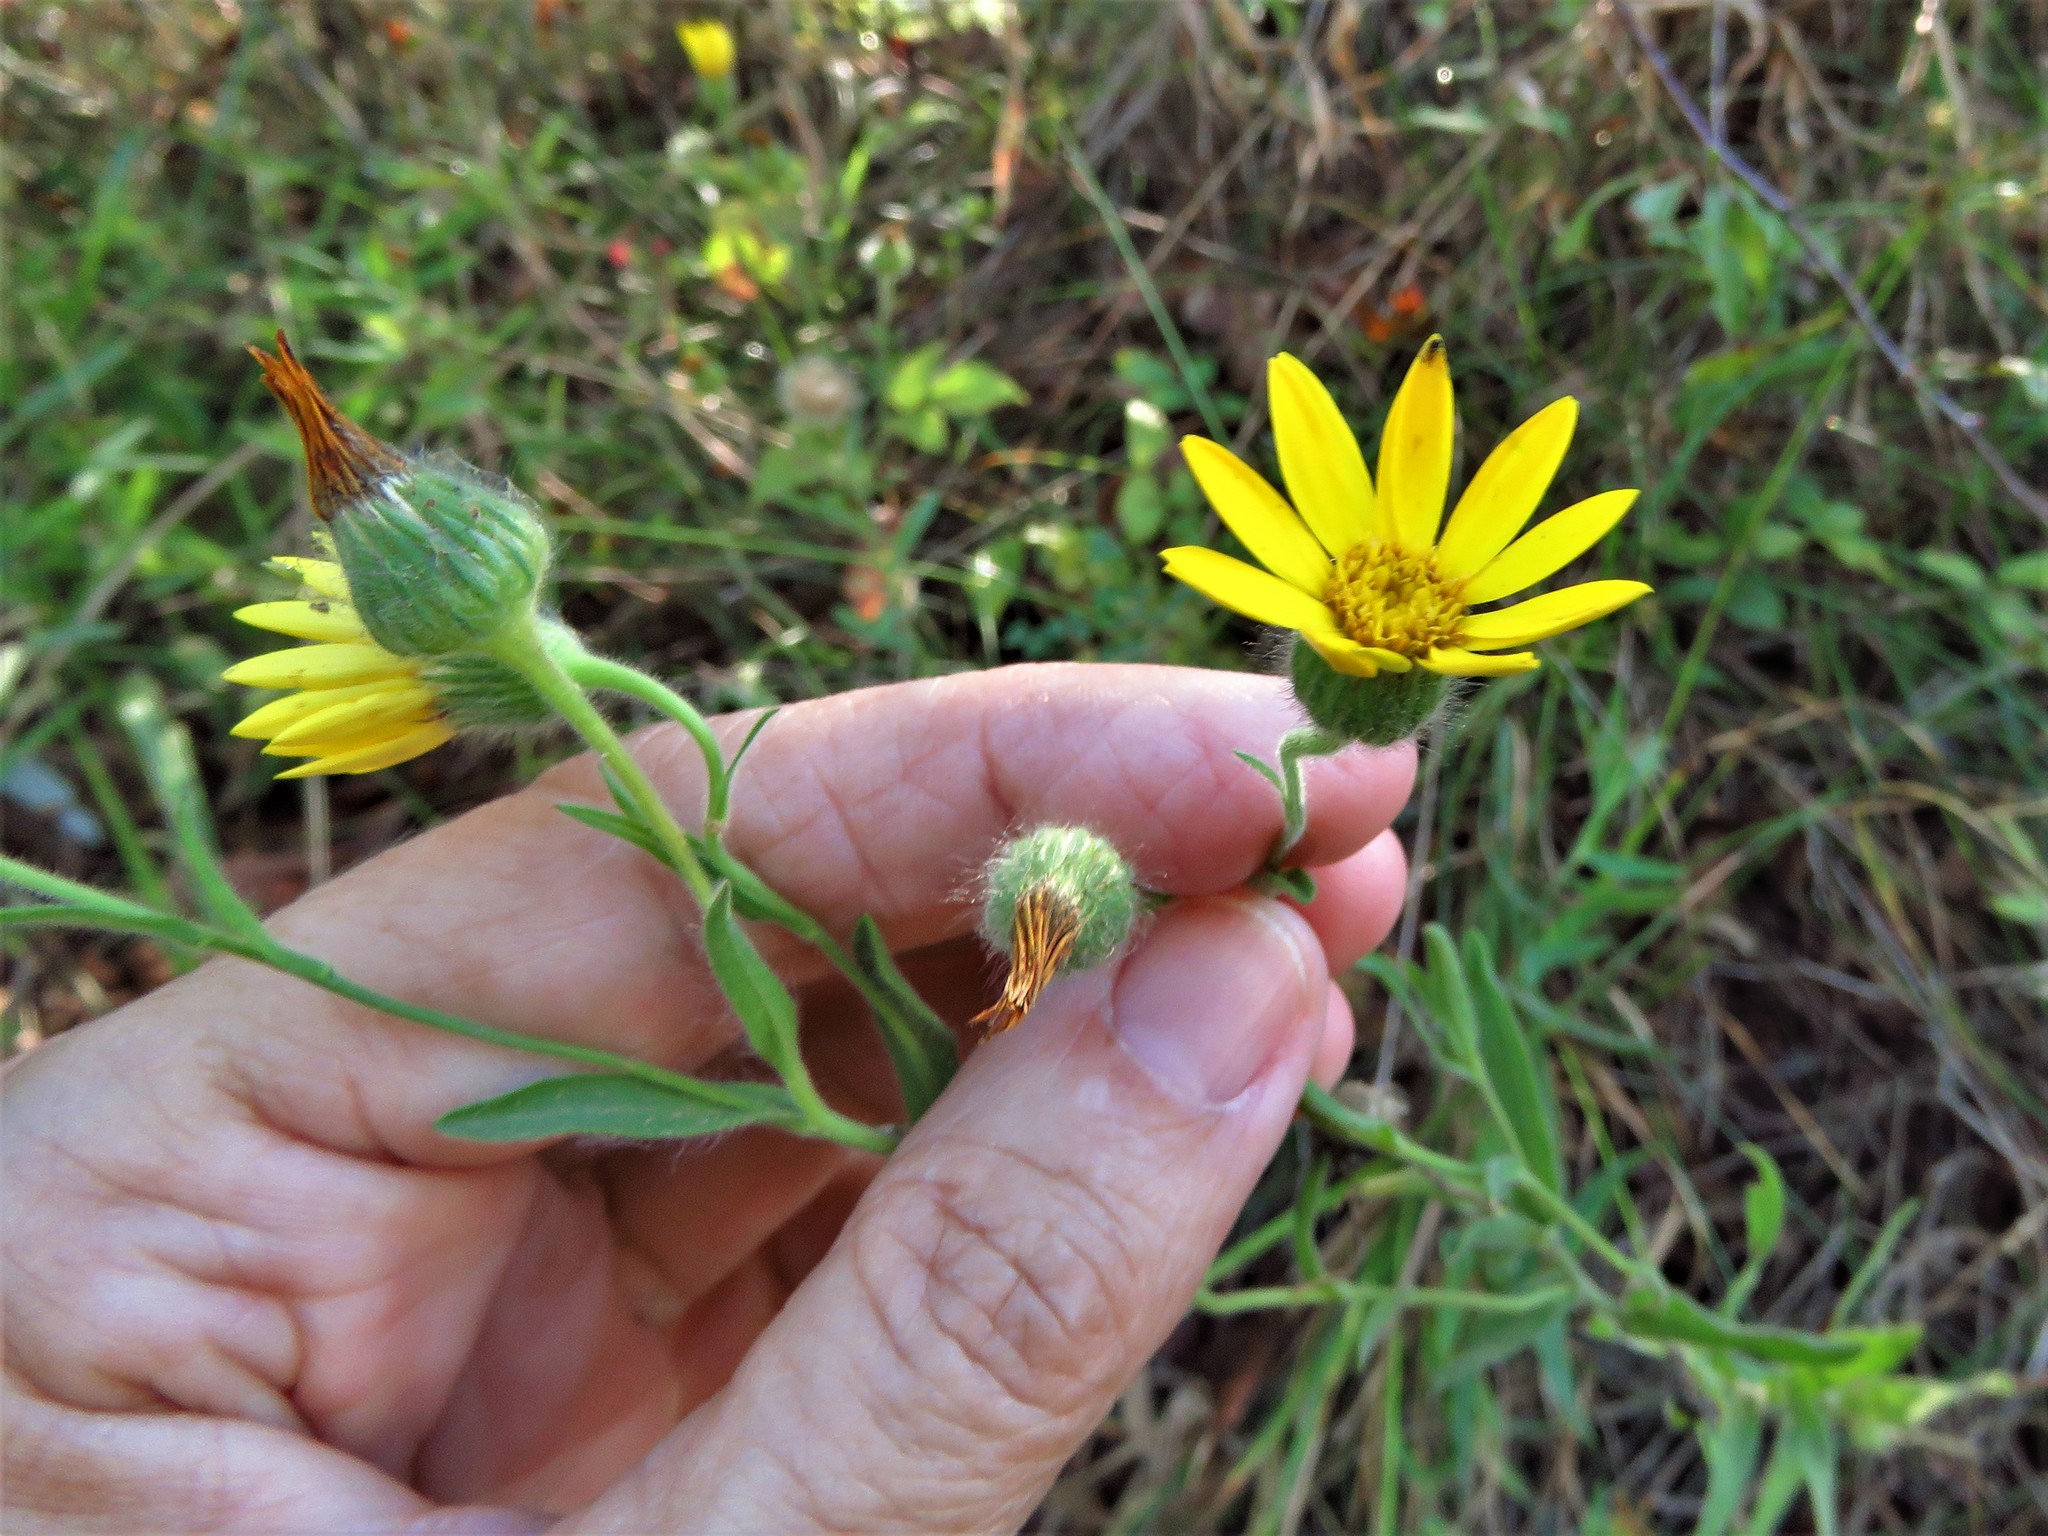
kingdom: Plantae
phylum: Tracheophyta
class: Magnoliopsida
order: Asterales
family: Asteraceae
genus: Bradburia
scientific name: Bradburia pilosa
